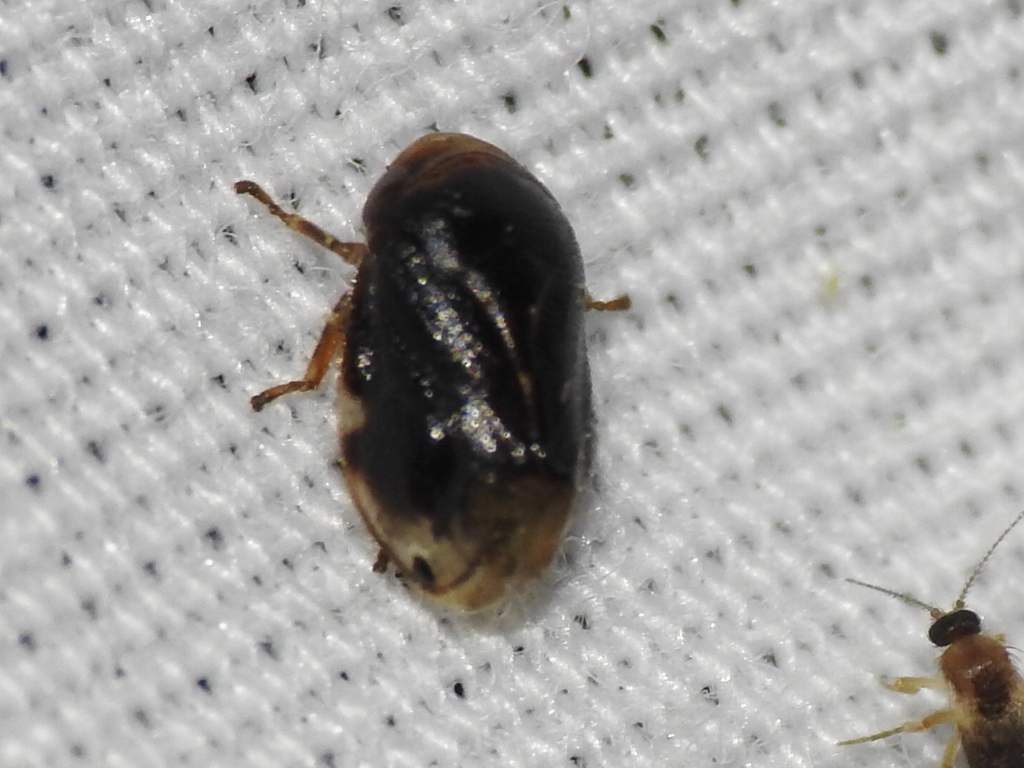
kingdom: Animalia
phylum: Arthropoda
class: Insecta
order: Hemiptera
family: Clastopteridae
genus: Clastoptera
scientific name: Clastoptera xanthocephala
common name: Sunflower spittlebug
